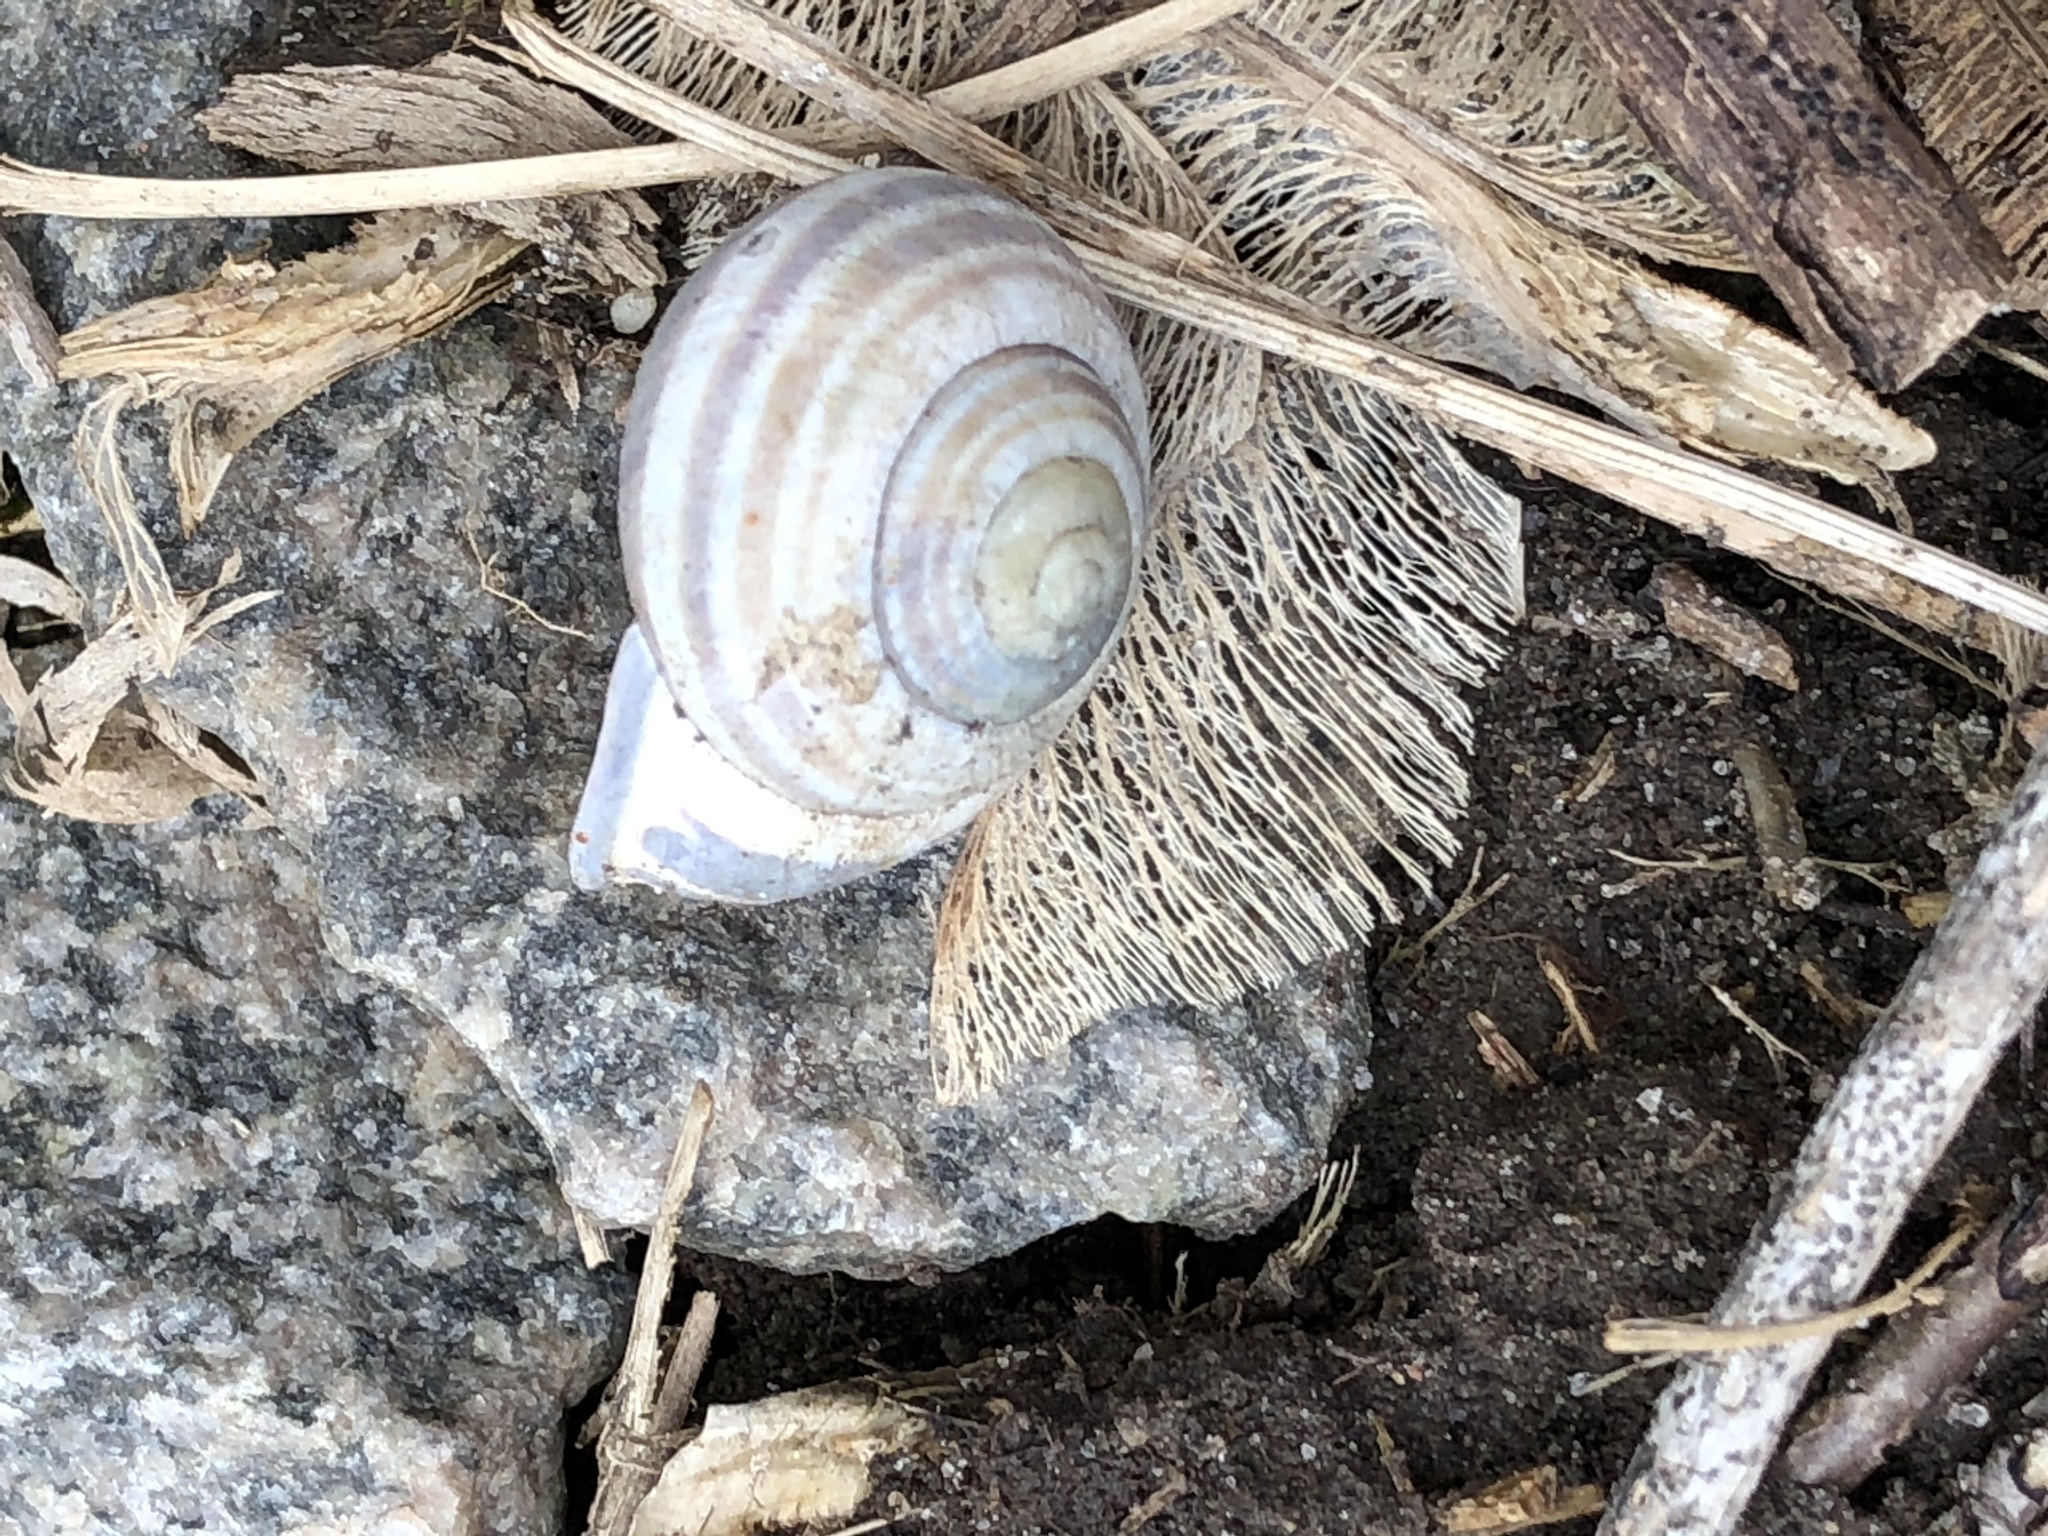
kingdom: Animalia
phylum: Mollusca
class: Gastropoda
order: Stylommatophora
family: Helicidae
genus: Cepaea
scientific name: Cepaea nemoralis
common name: Grovesnail
